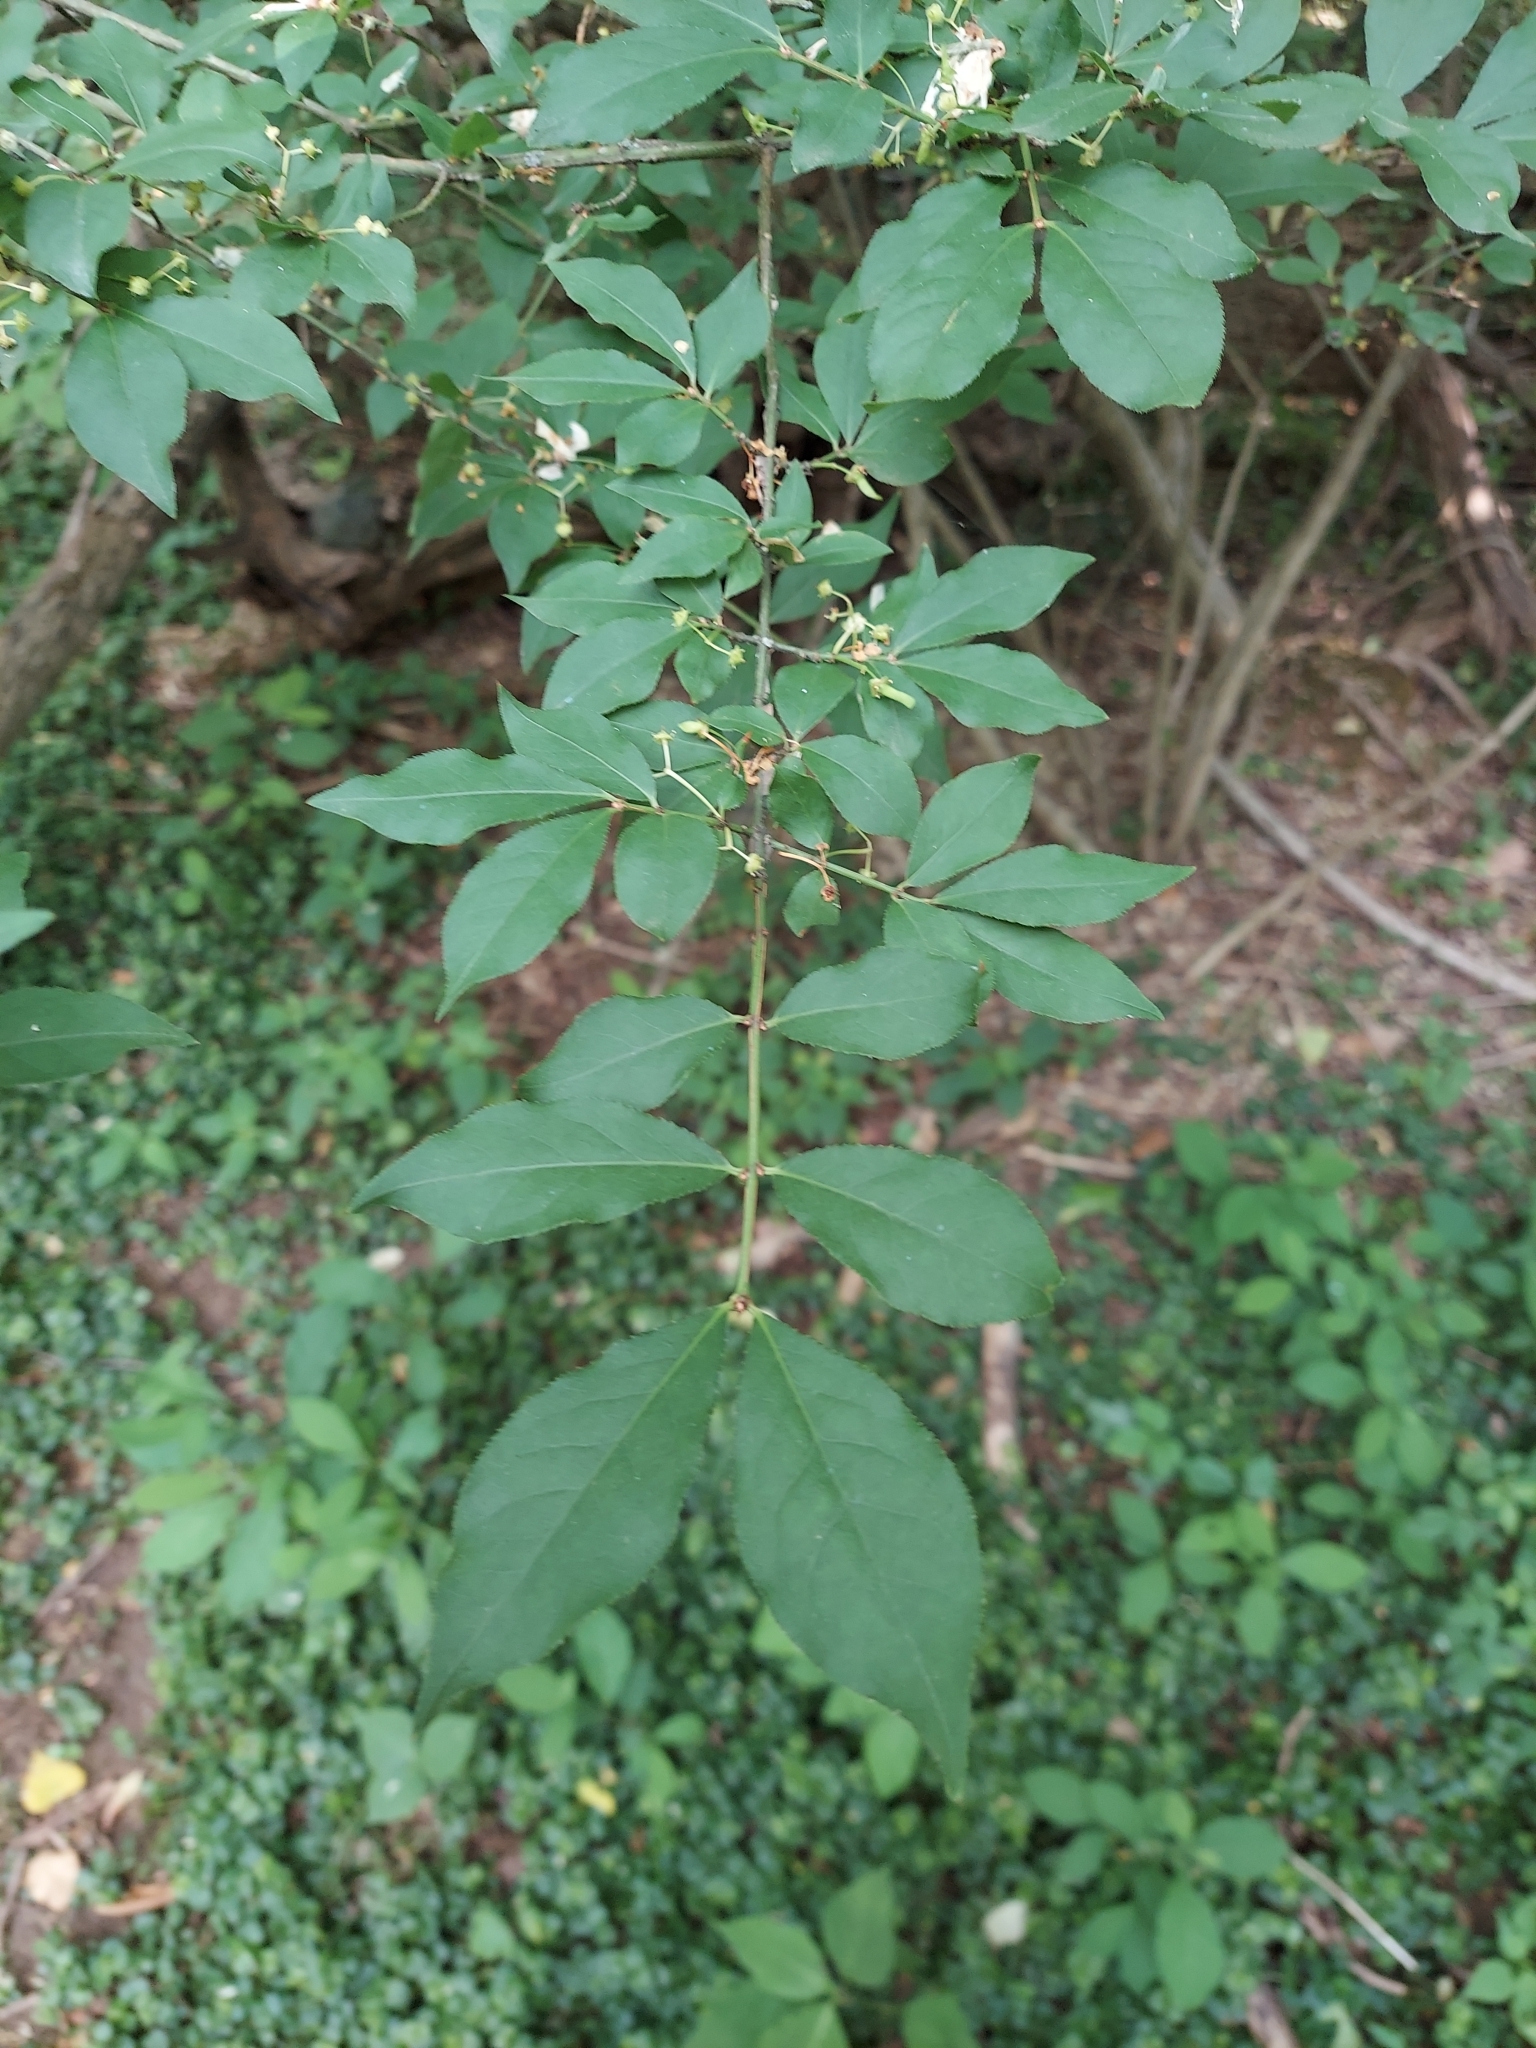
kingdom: Plantae
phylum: Tracheophyta
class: Magnoliopsida
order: Celastrales
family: Celastraceae
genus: Euonymus
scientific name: Euonymus alatus
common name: Winged euonymus
